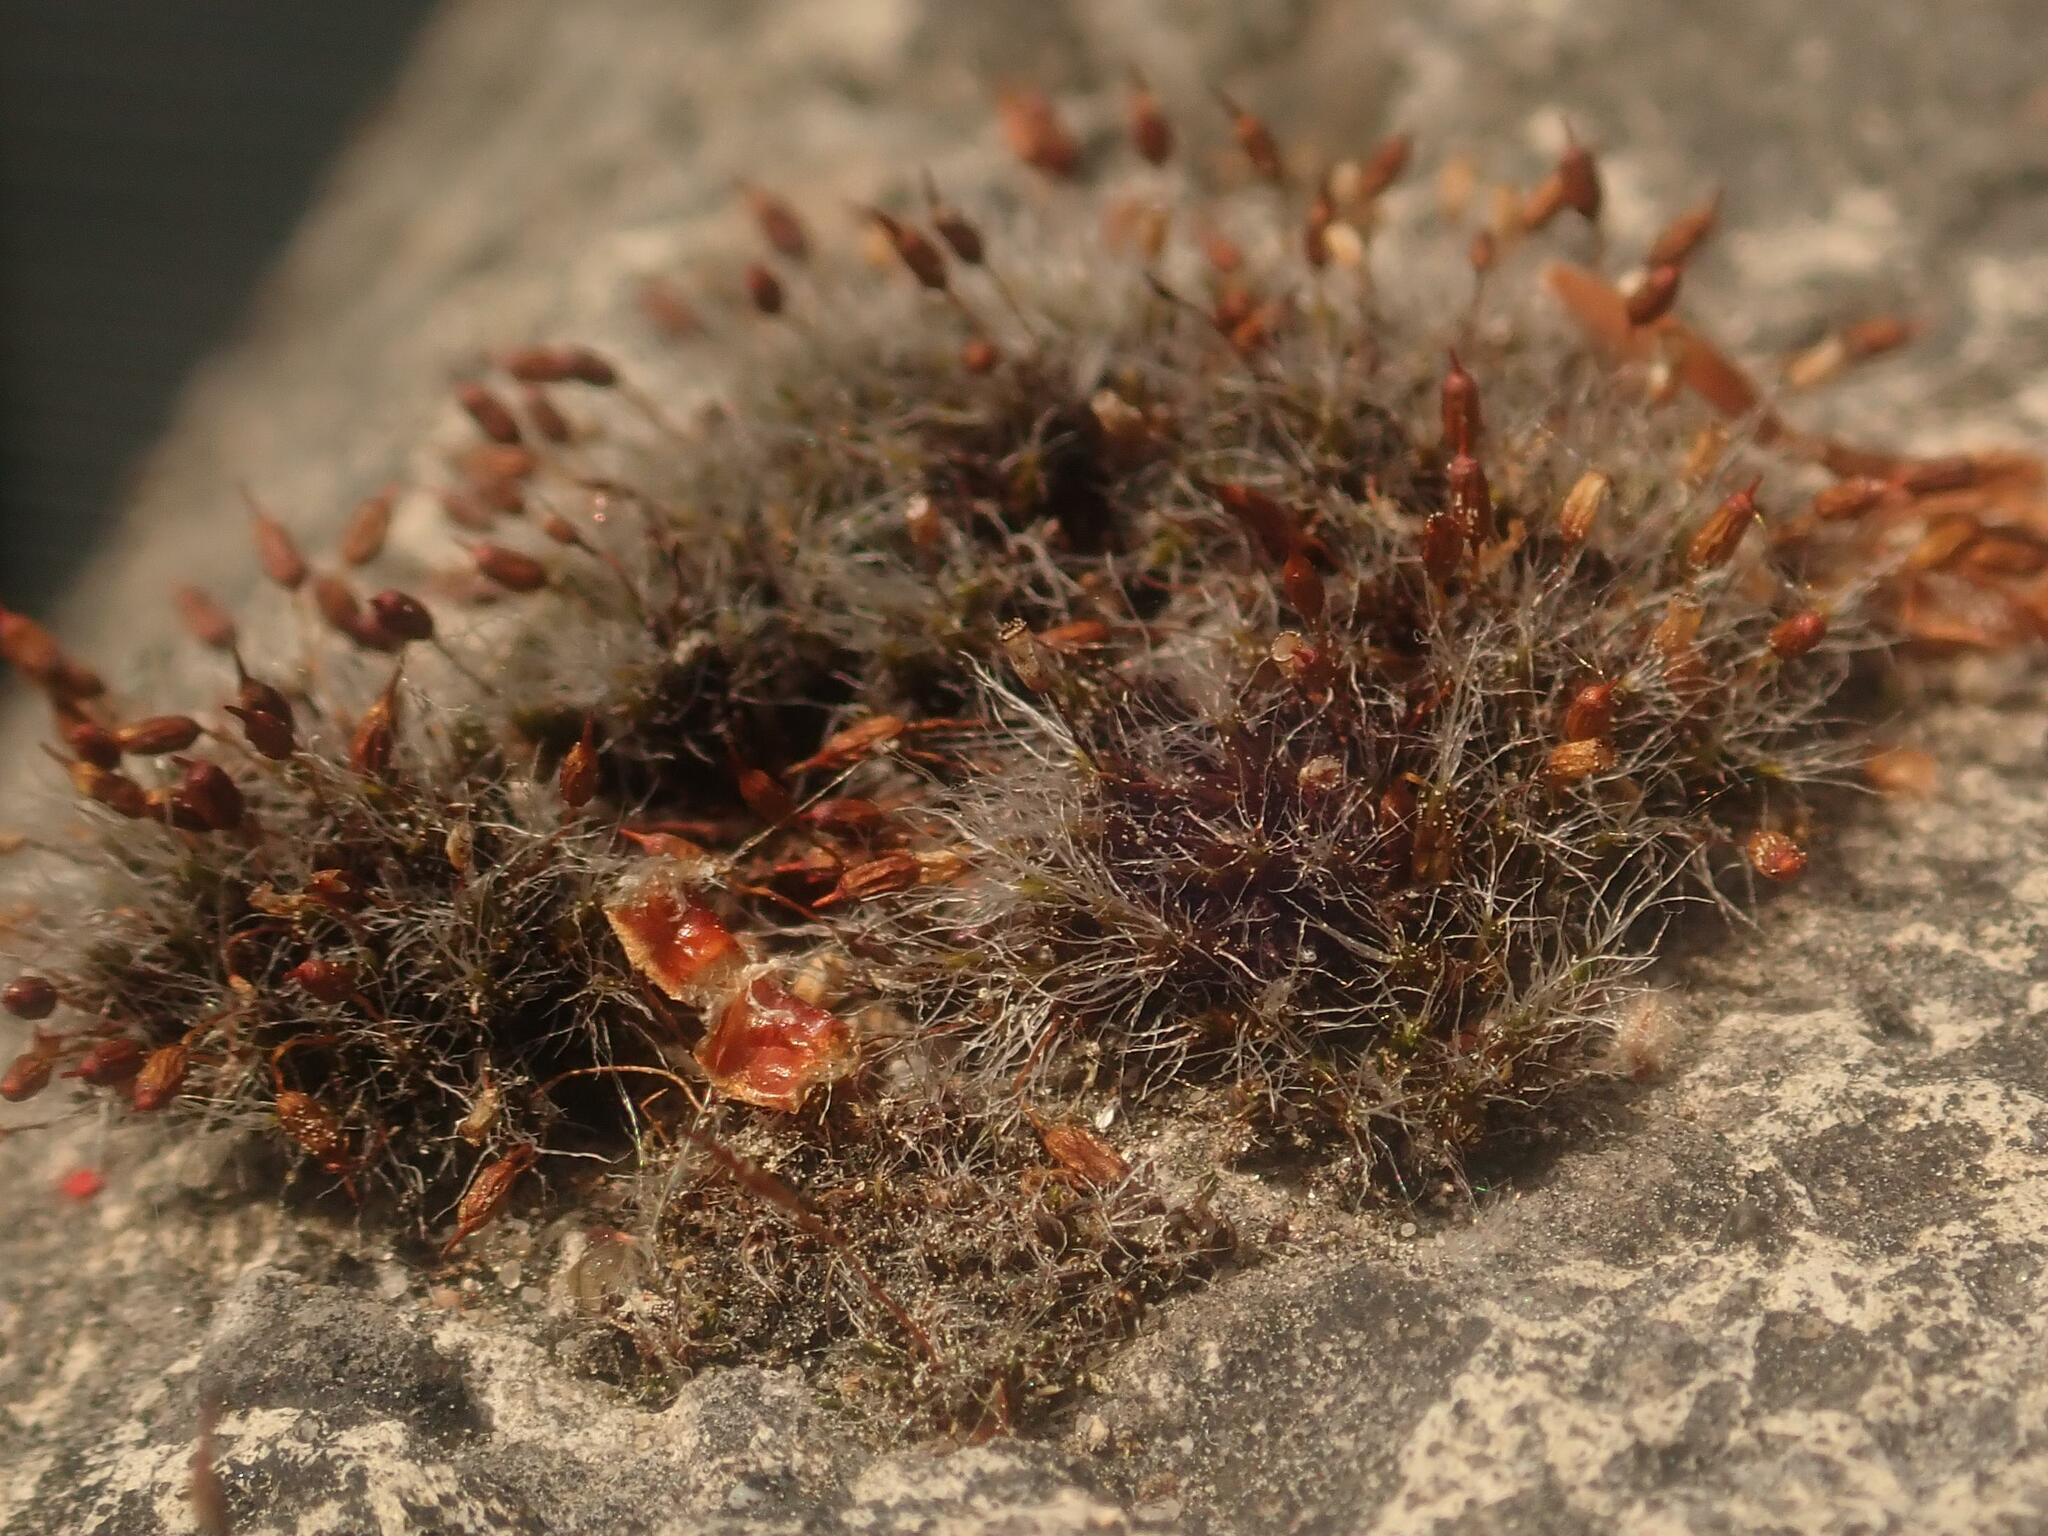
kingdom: Plantae
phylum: Bryophyta
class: Bryopsida
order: Grimmiales
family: Grimmiaceae
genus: Grimmia
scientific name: Grimmia pulvinata
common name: Grey-cushioned grimmia
